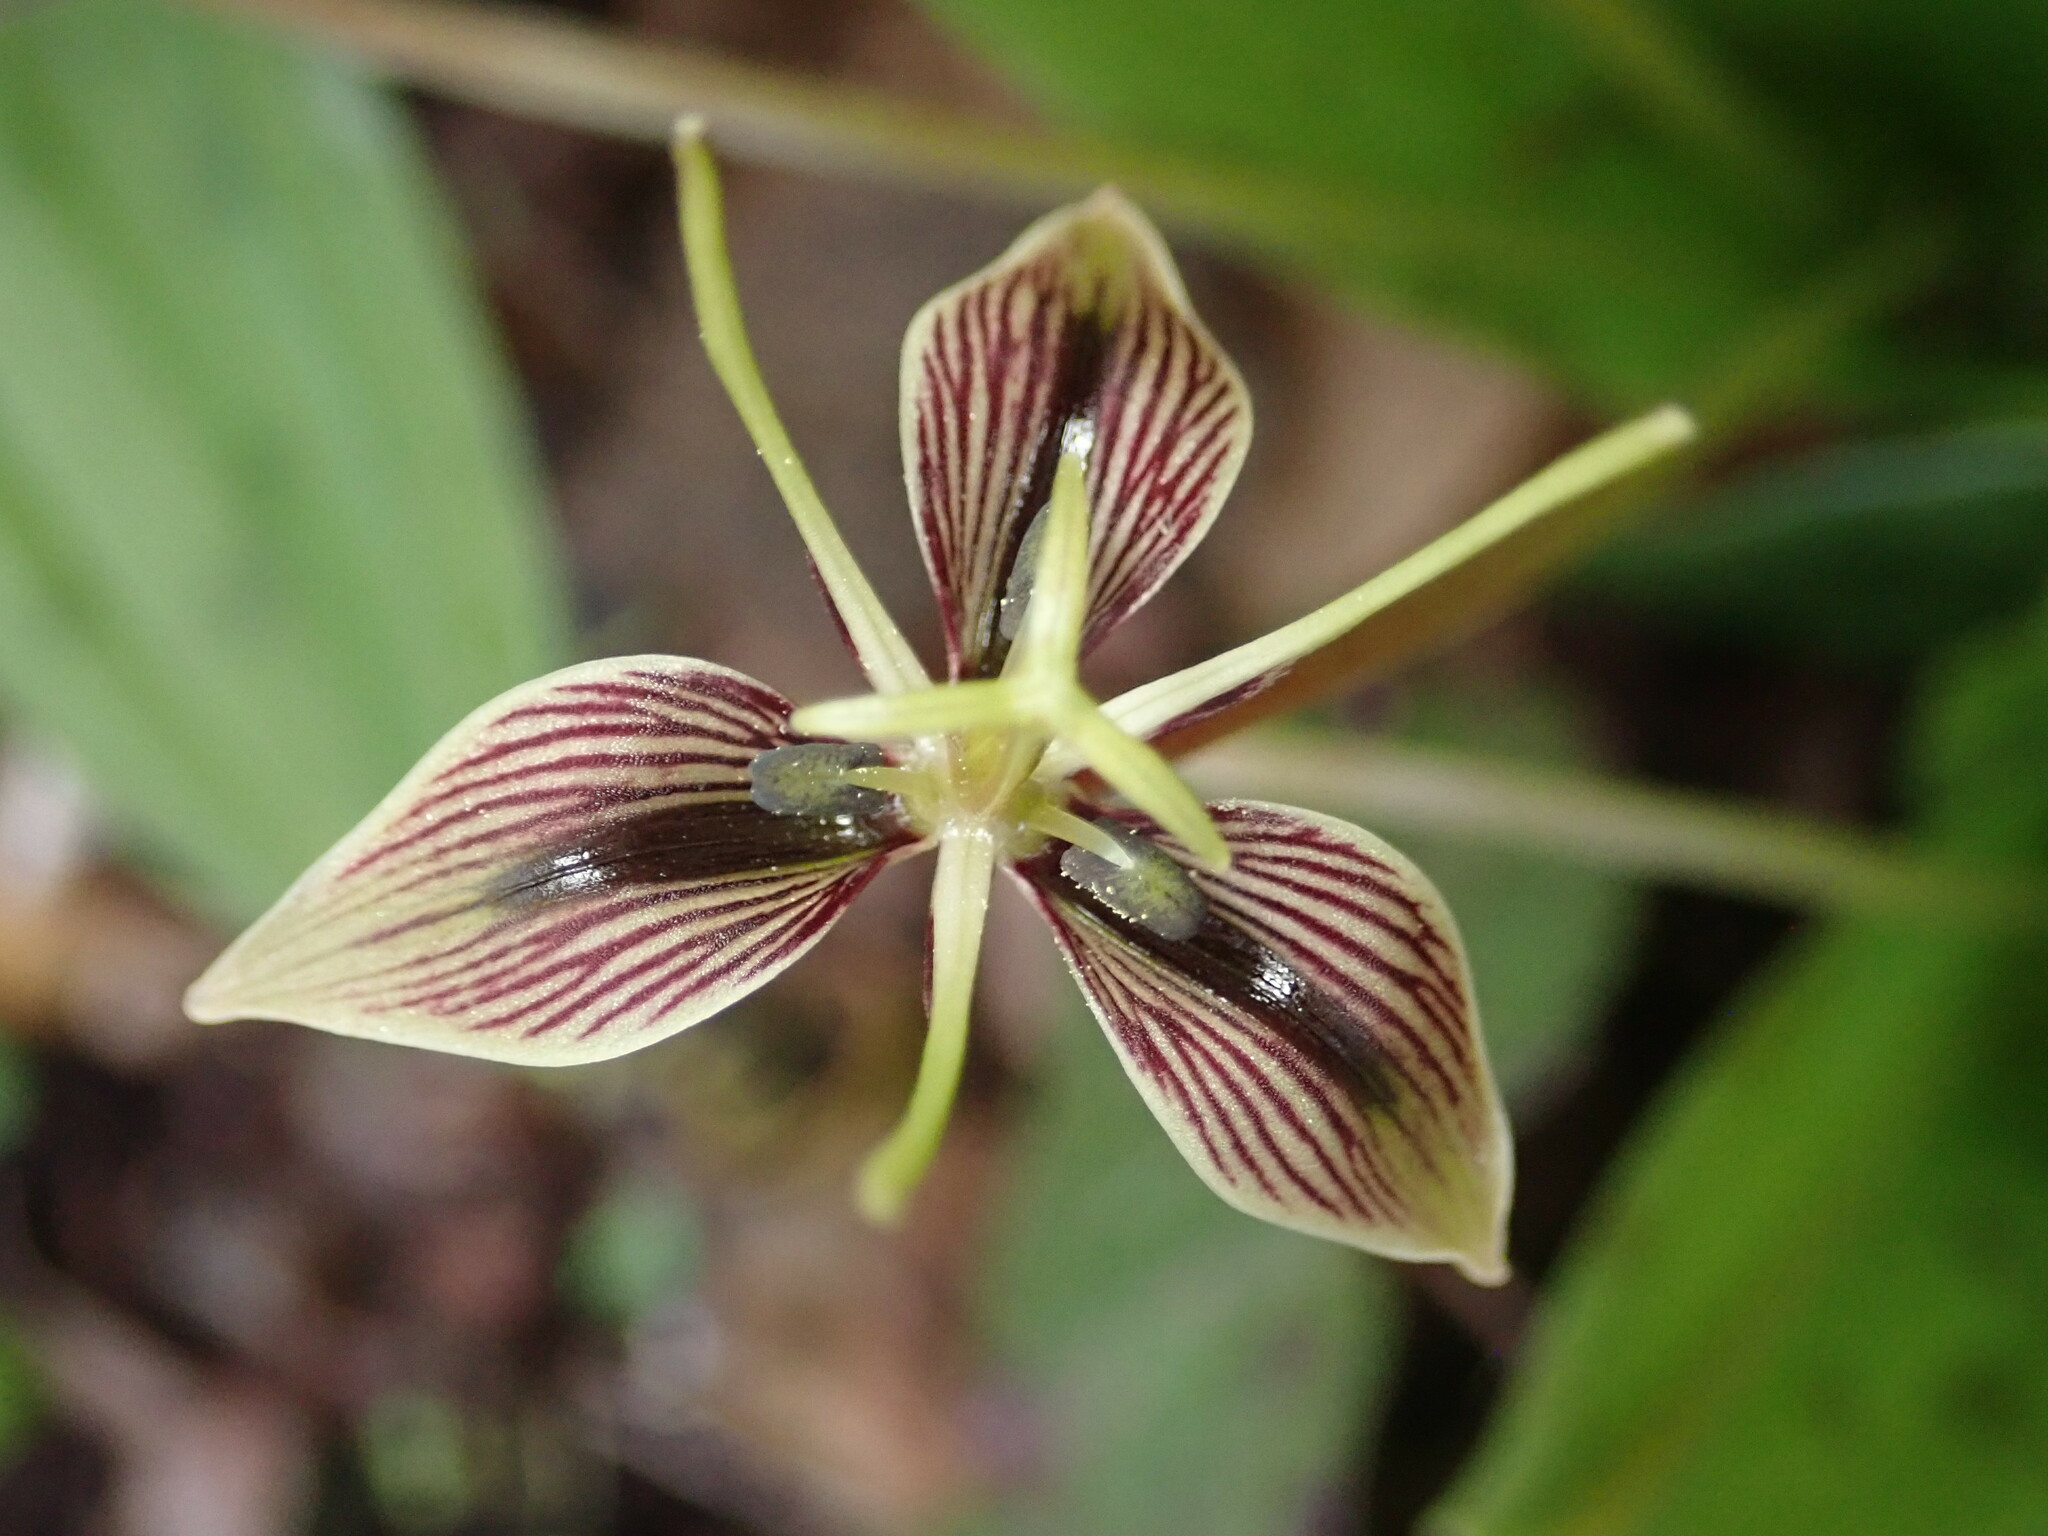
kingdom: Plantae
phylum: Tracheophyta
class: Liliopsida
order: Liliales
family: Liliaceae
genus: Scoliopus
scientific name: Scoliopus bigelovii
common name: Foetid adder's-tongue
